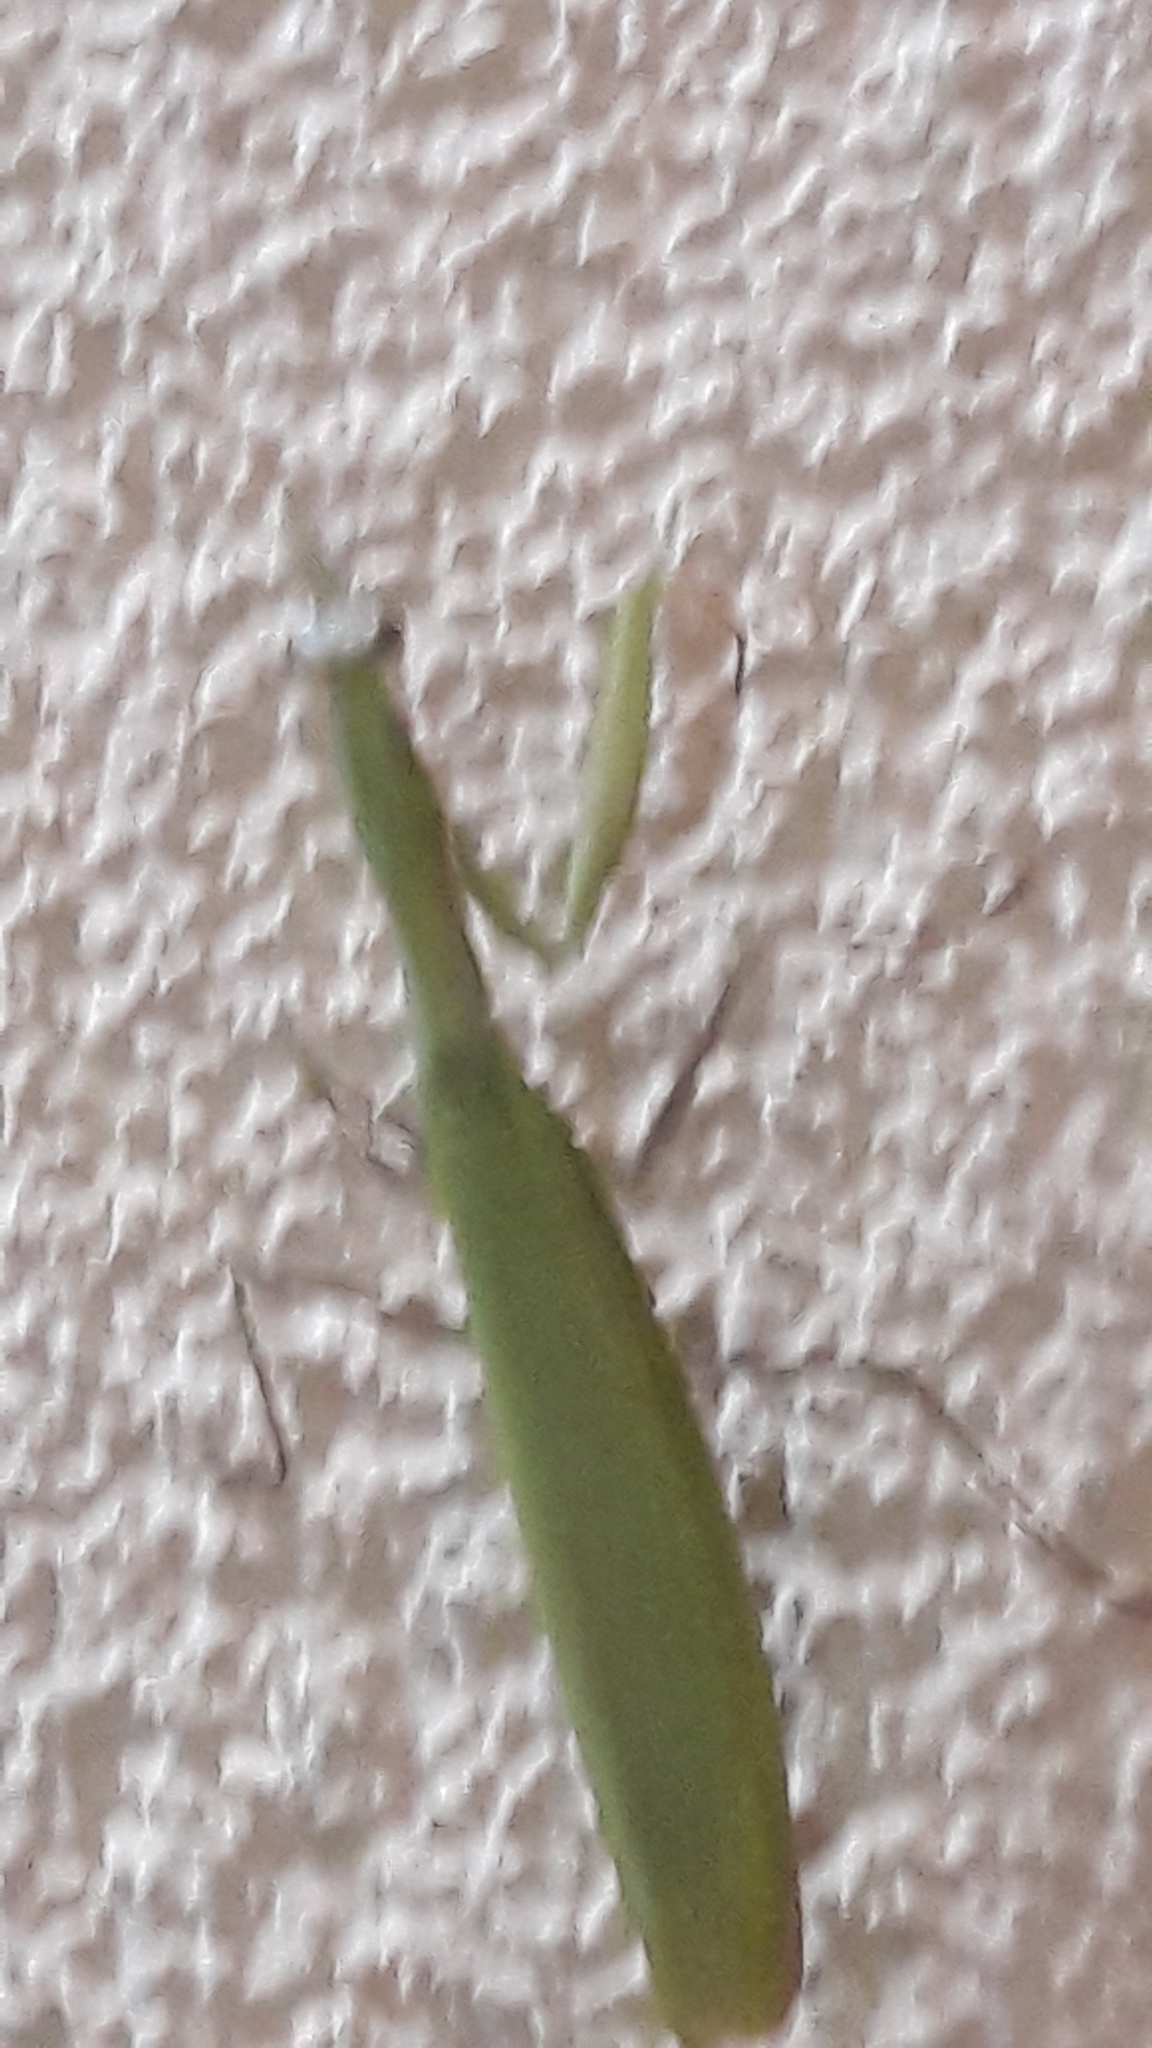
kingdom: Animalia
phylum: Arthropoda
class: Insecta
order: Mantodea
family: Mantidae
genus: Mantis
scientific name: Mantis religiosa
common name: Praying mantis
